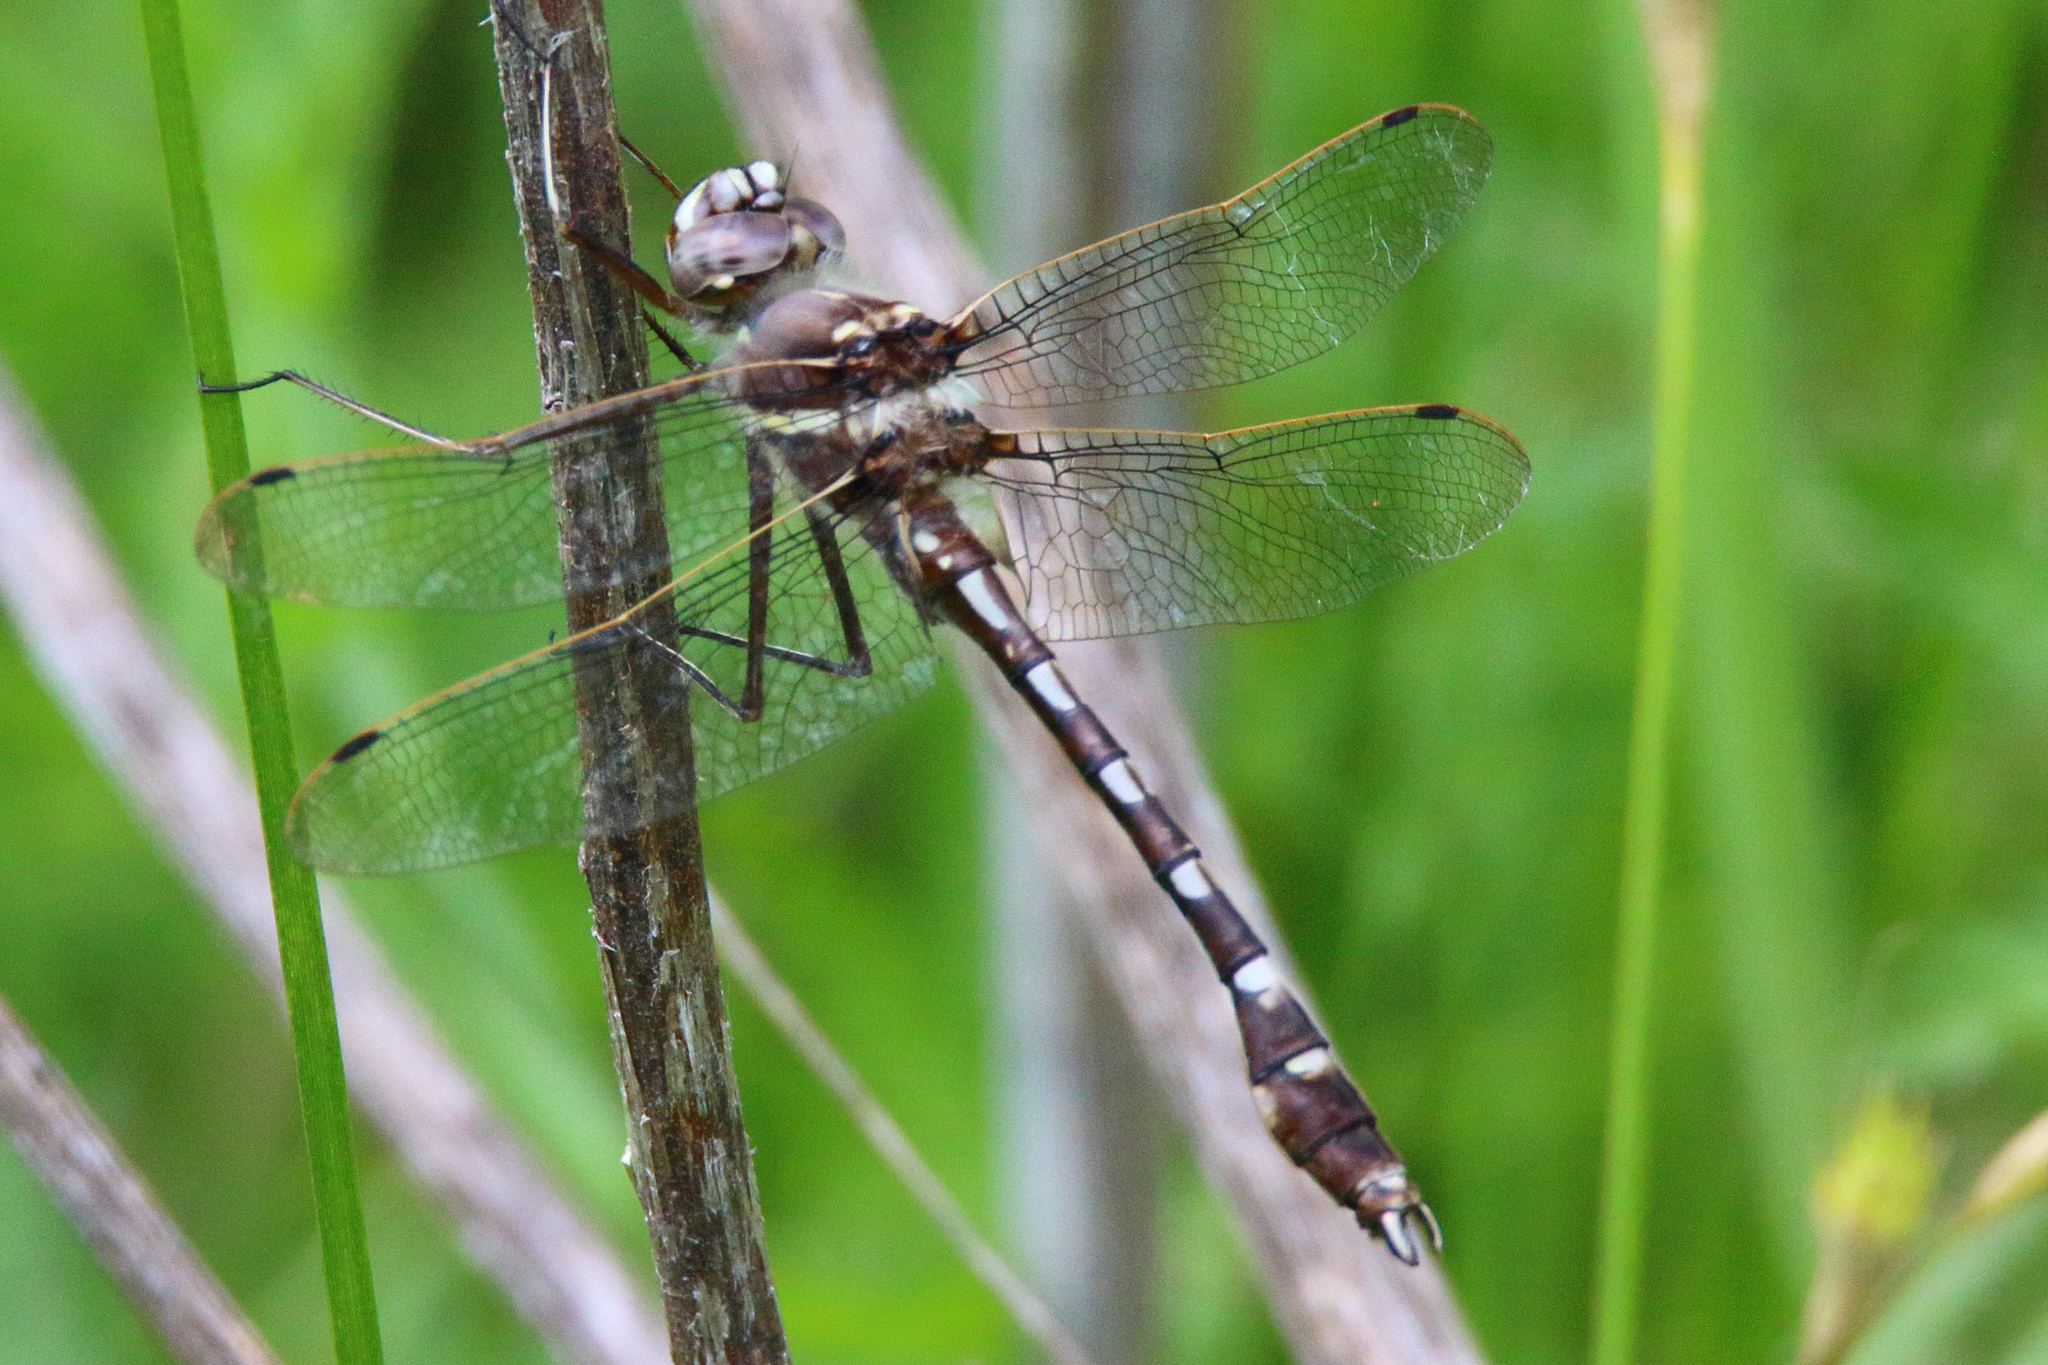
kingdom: Animalia
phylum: Arthropoda
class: Insecta
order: Odonata
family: Macromiidae
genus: Didymops
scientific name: Didymops transversa
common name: Stream cruiser
